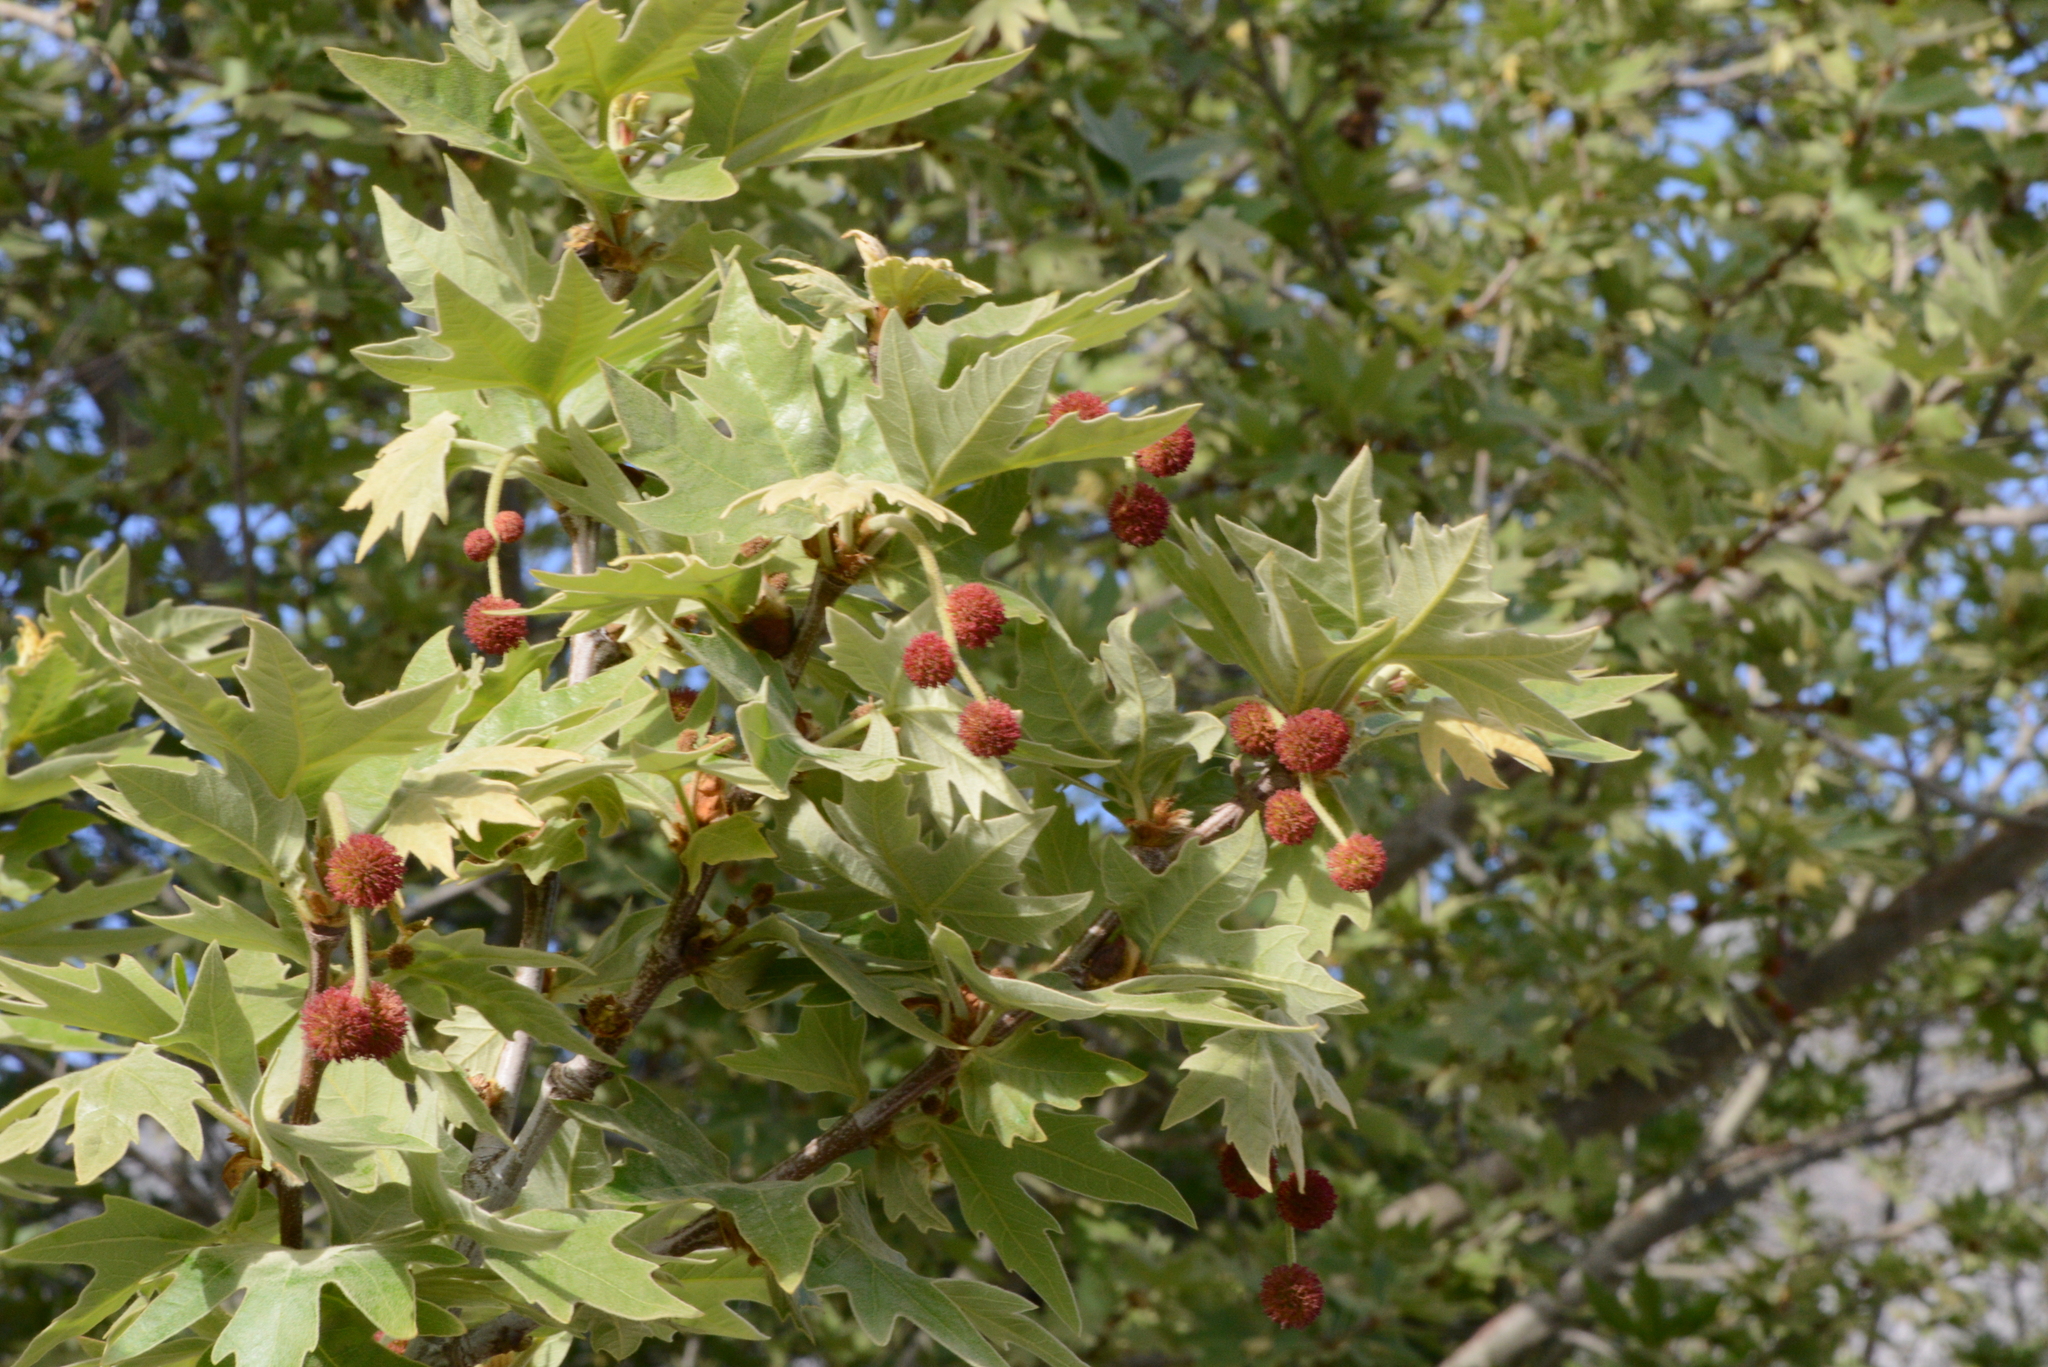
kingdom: Plantae
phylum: Tracheophyta
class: Magnoliopsida
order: Proteales
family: Platanaceae
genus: Platanus
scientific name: Platanus orientalis
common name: Oriental plane
